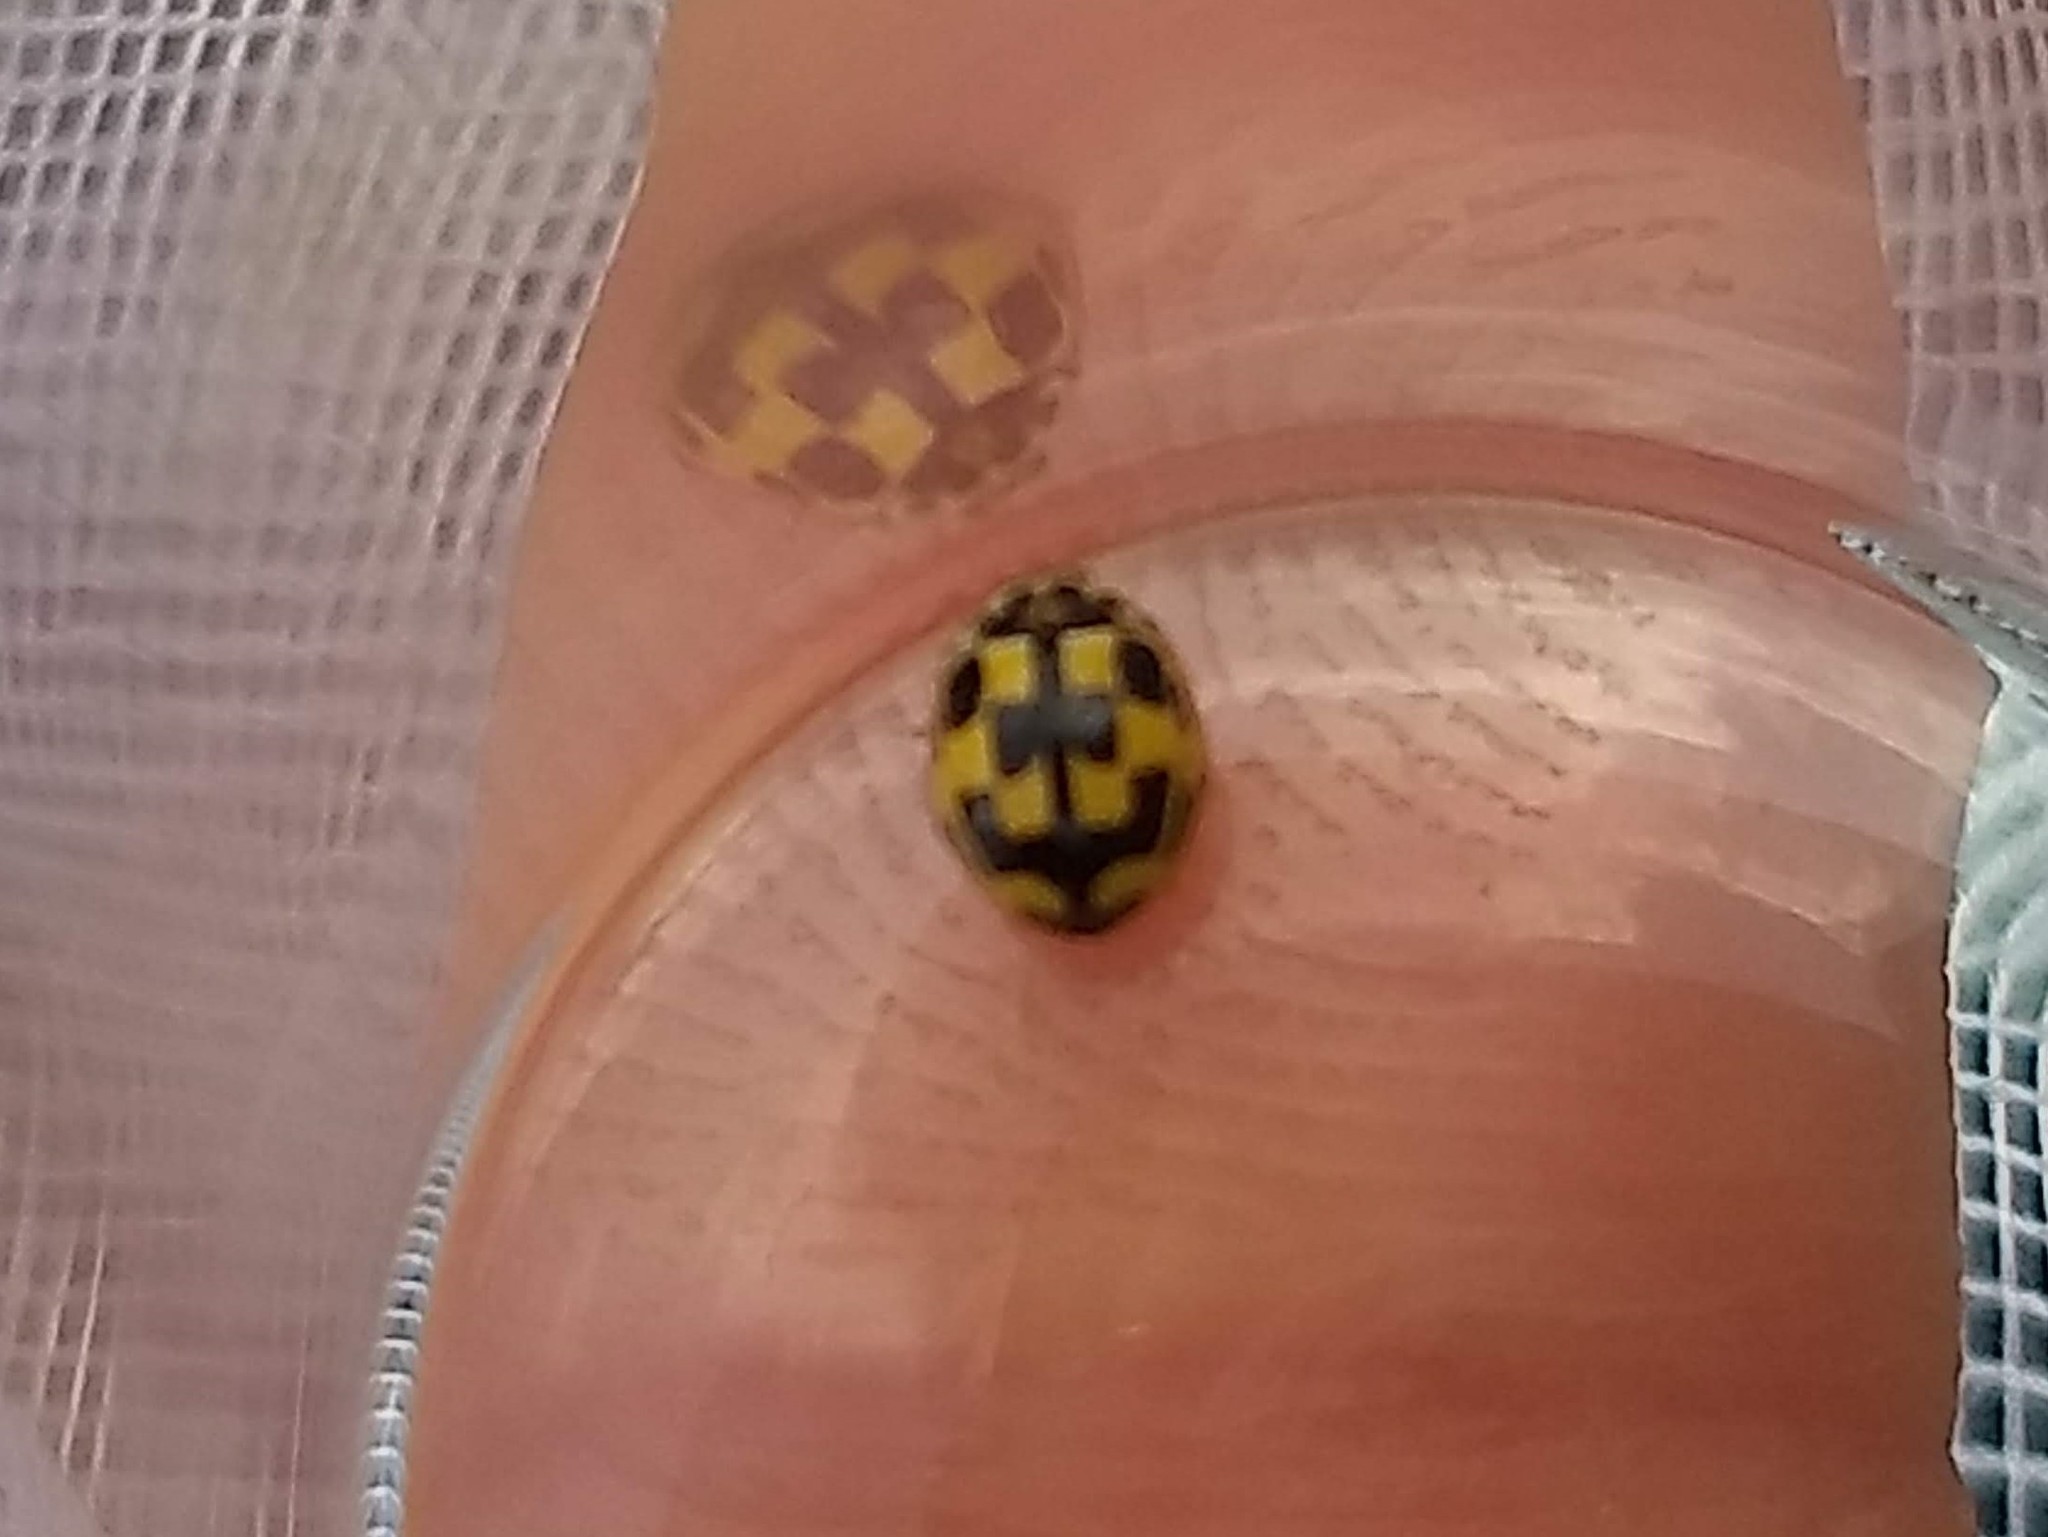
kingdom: Animalia
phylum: Arthropoda
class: Insecta
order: Coleoptera
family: Coccinellidae
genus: Propylaea
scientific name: Propylaea quatuordecimpunctata
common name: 14-spotted ladybird beetle
